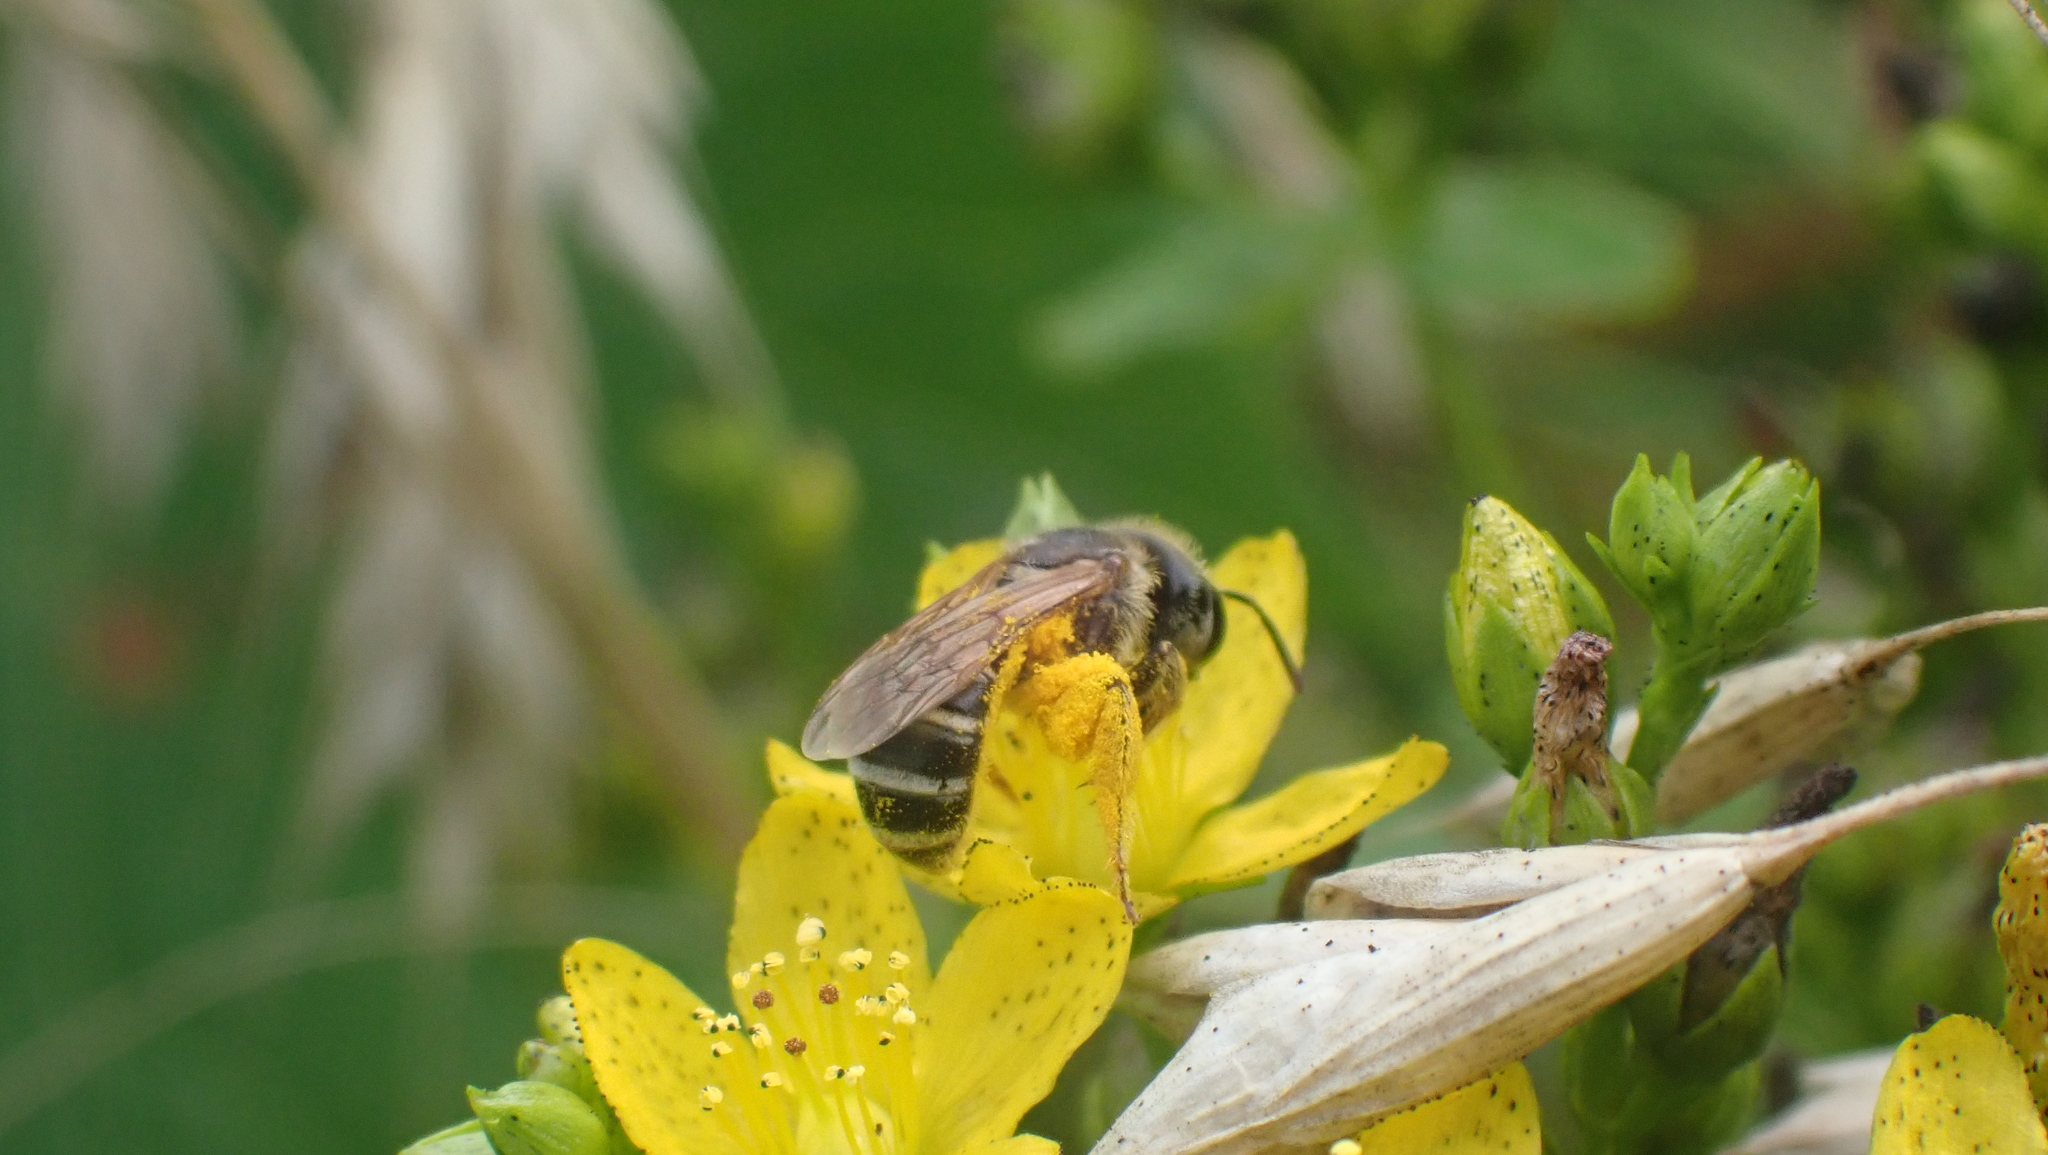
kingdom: Animalia
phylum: Arthropoda
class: Insecta
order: Hymenoptera
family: Halictidae
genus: Halictus
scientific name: Halictus ligatus
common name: Ligated furrow bee
